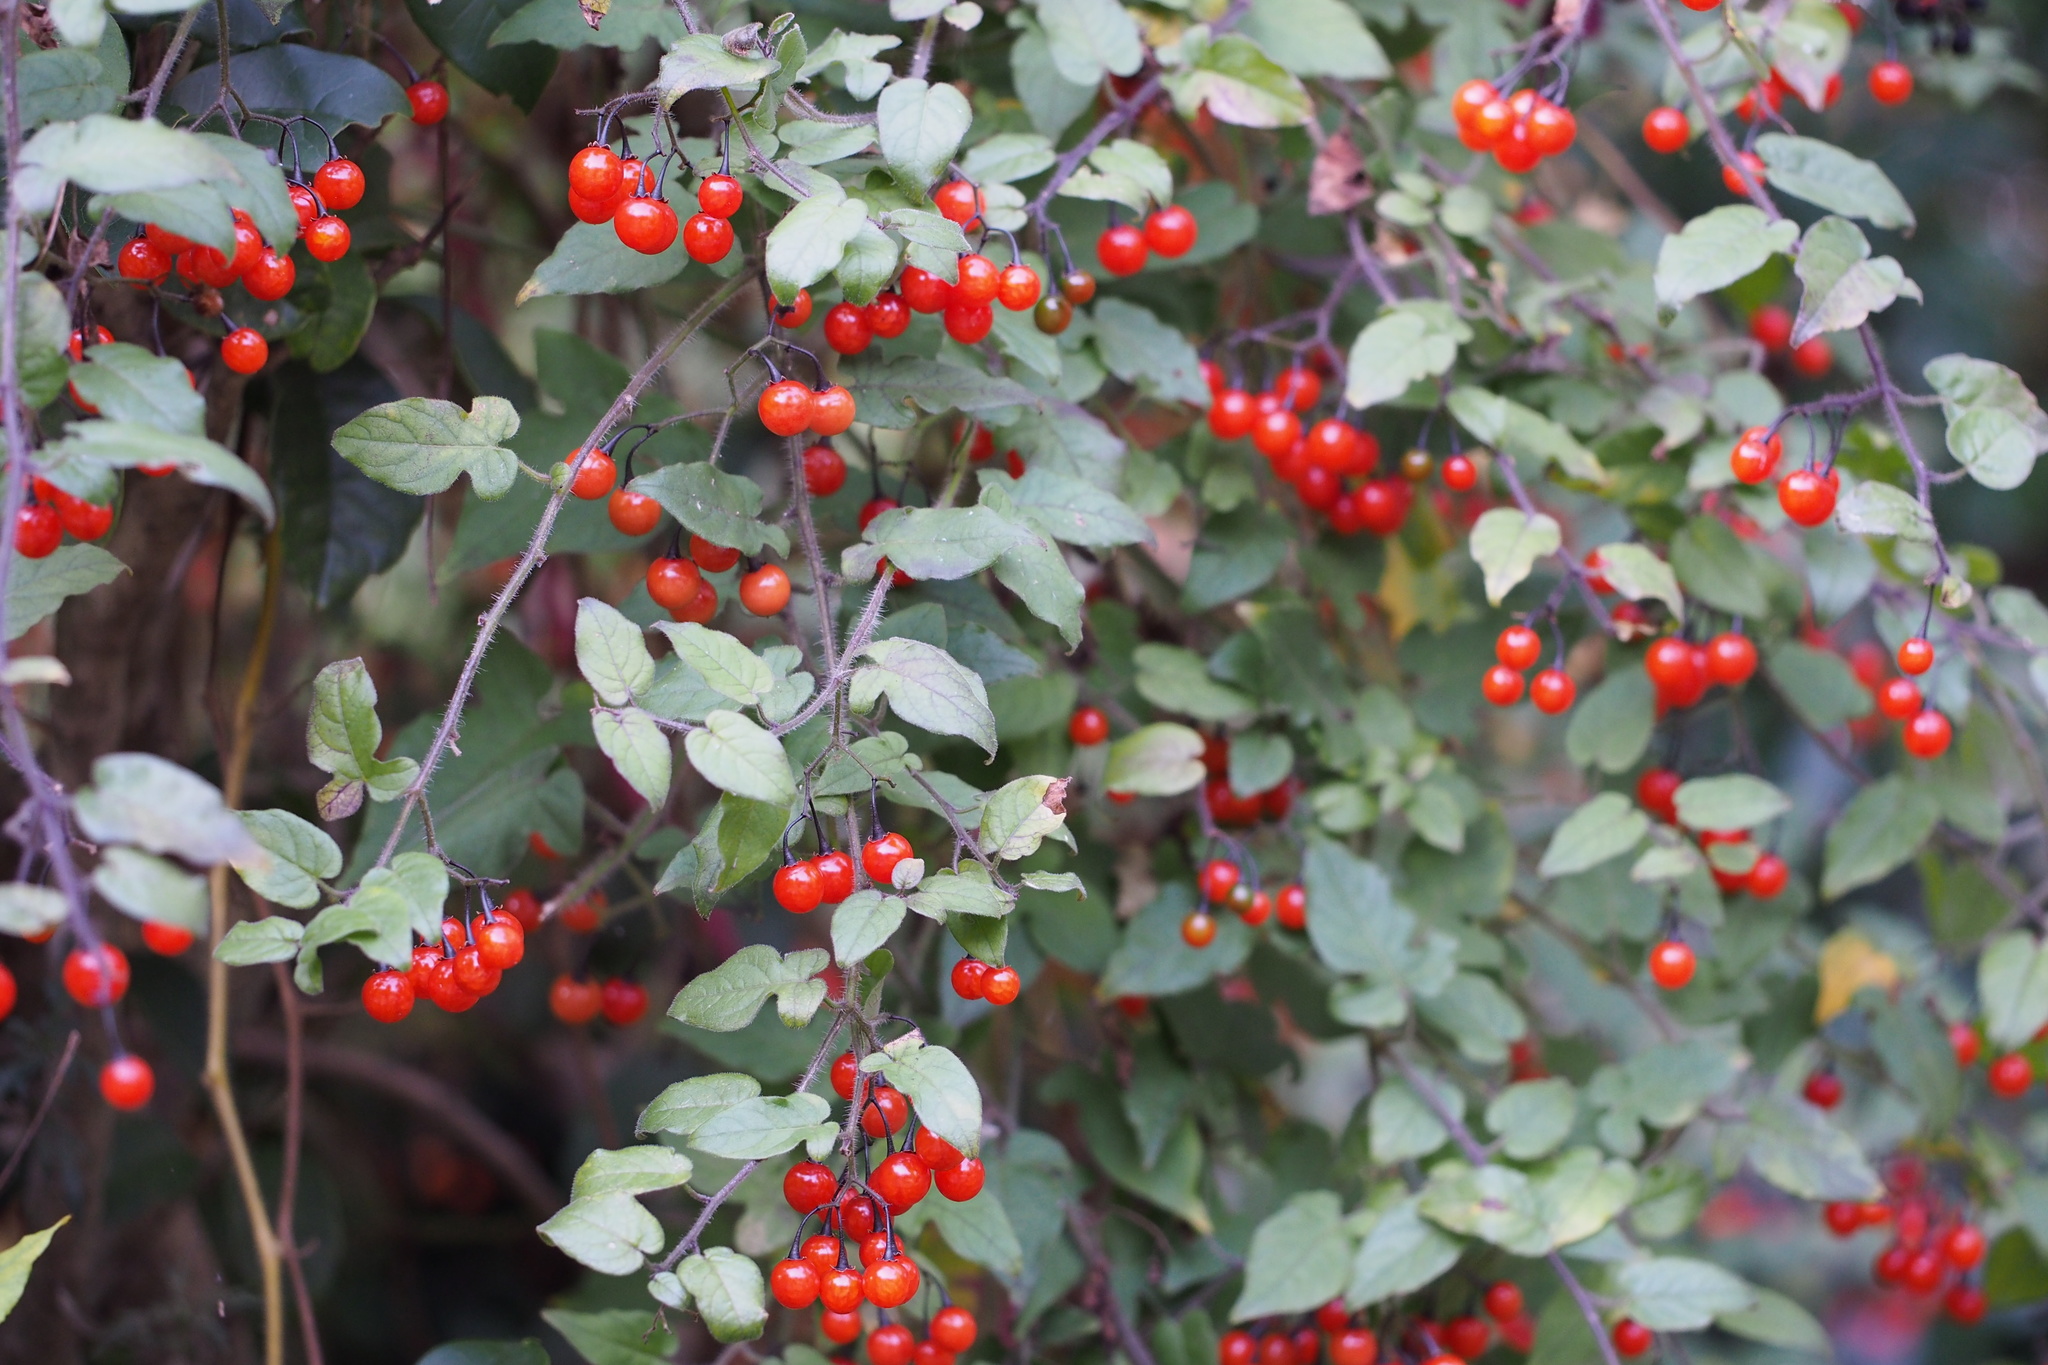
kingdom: Plantae
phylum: Tracheophyta
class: Magnoliopsida
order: Solanales
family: Solanaceae
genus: Solanum
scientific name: Solanum lyratum
